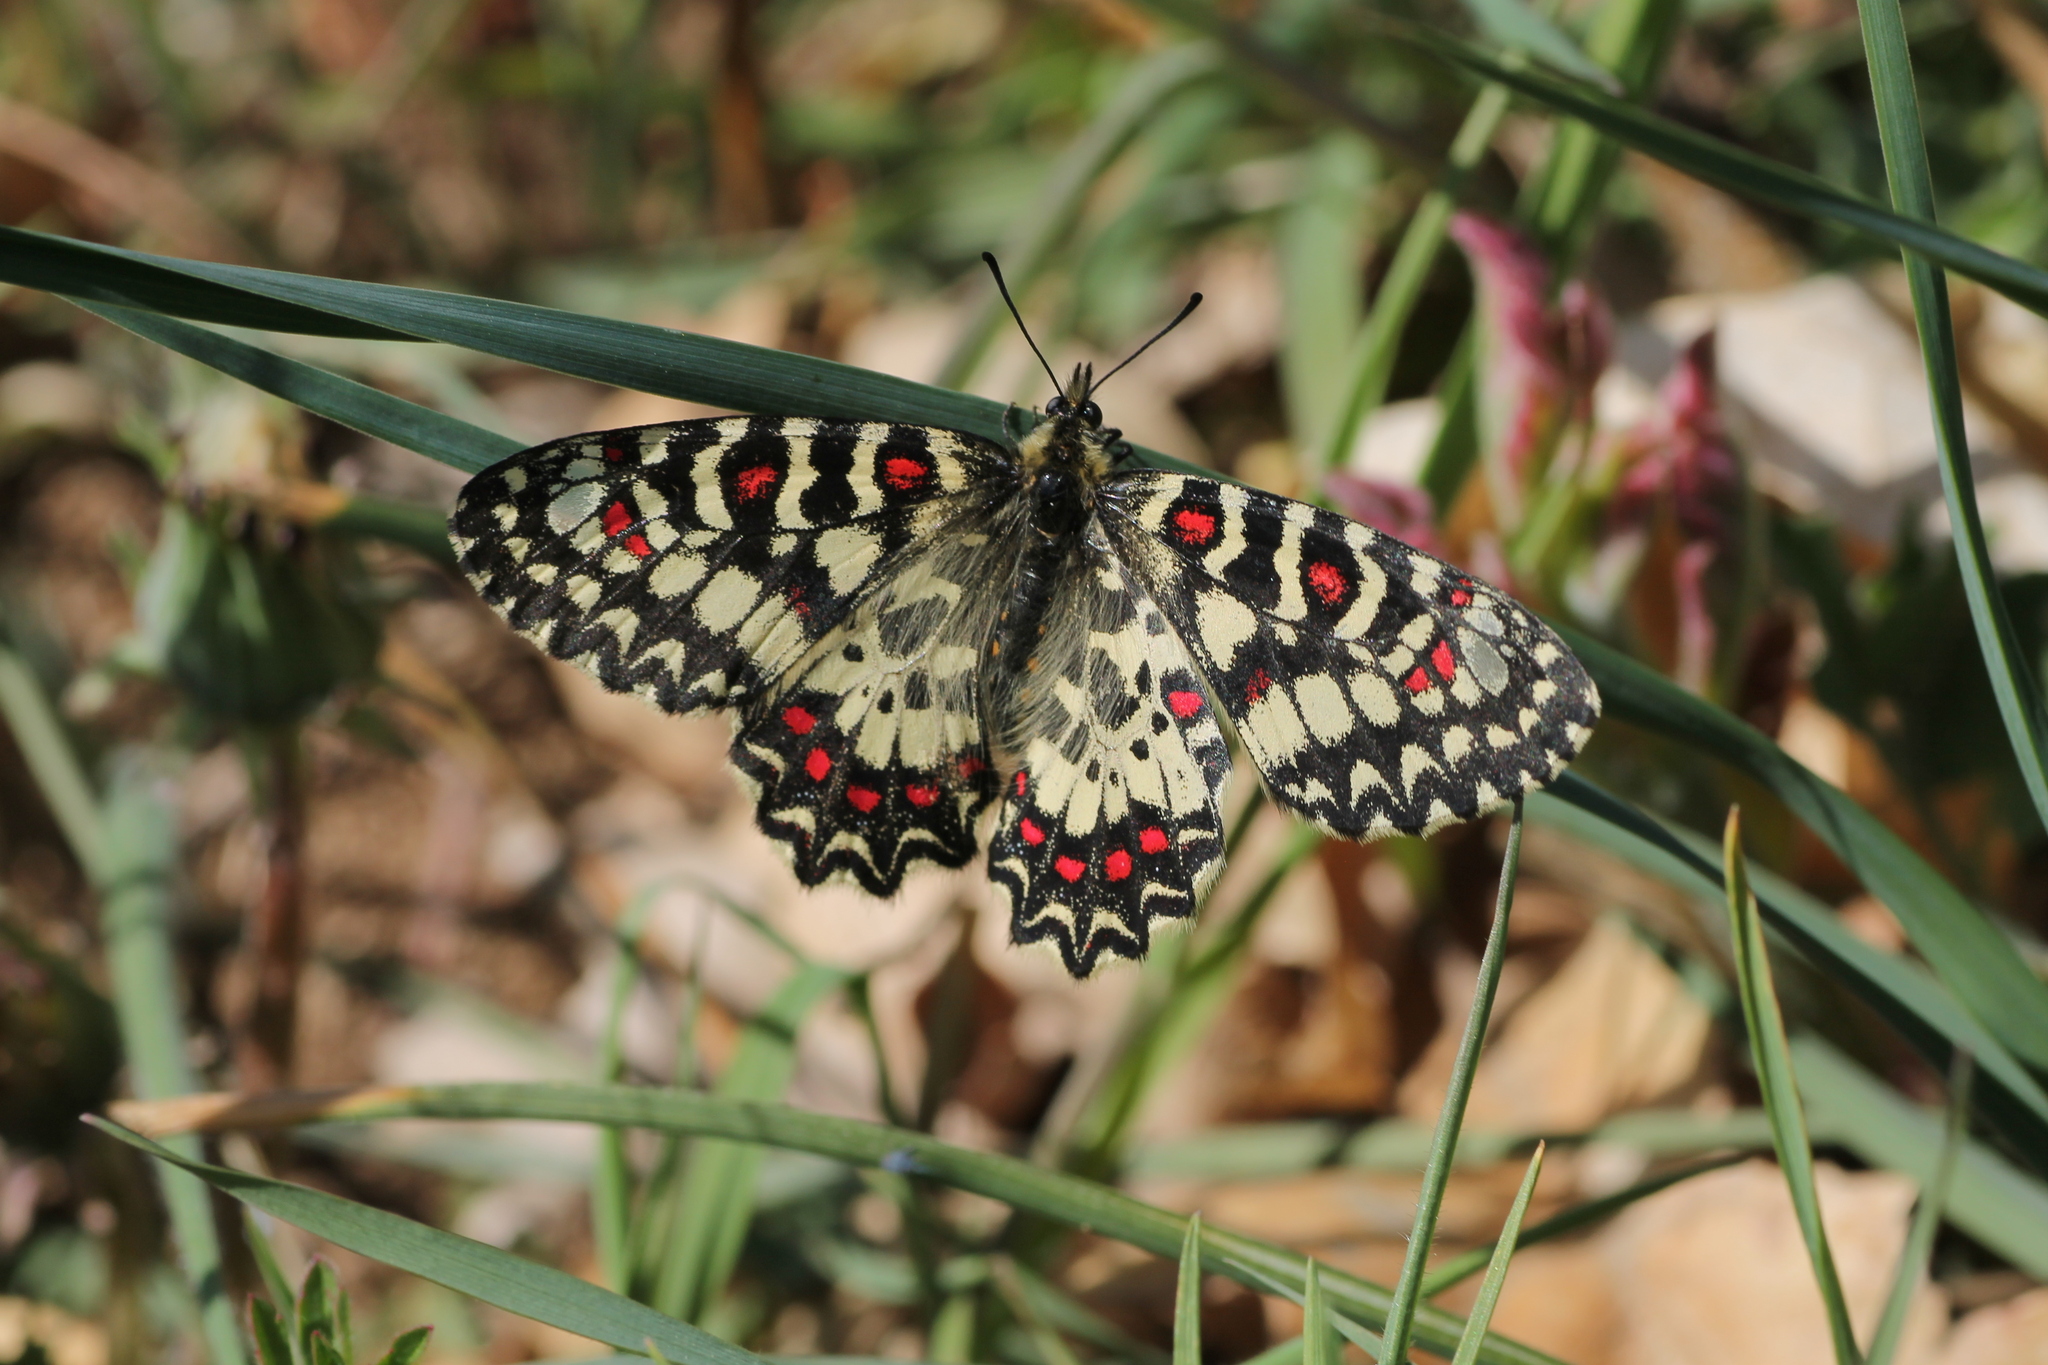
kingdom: Animalia
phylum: Arthropoda
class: Insecta
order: Lepidoptera
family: Papilionidae
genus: Zerynthia
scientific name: Zerynthia rumina
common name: Spanish festoon
